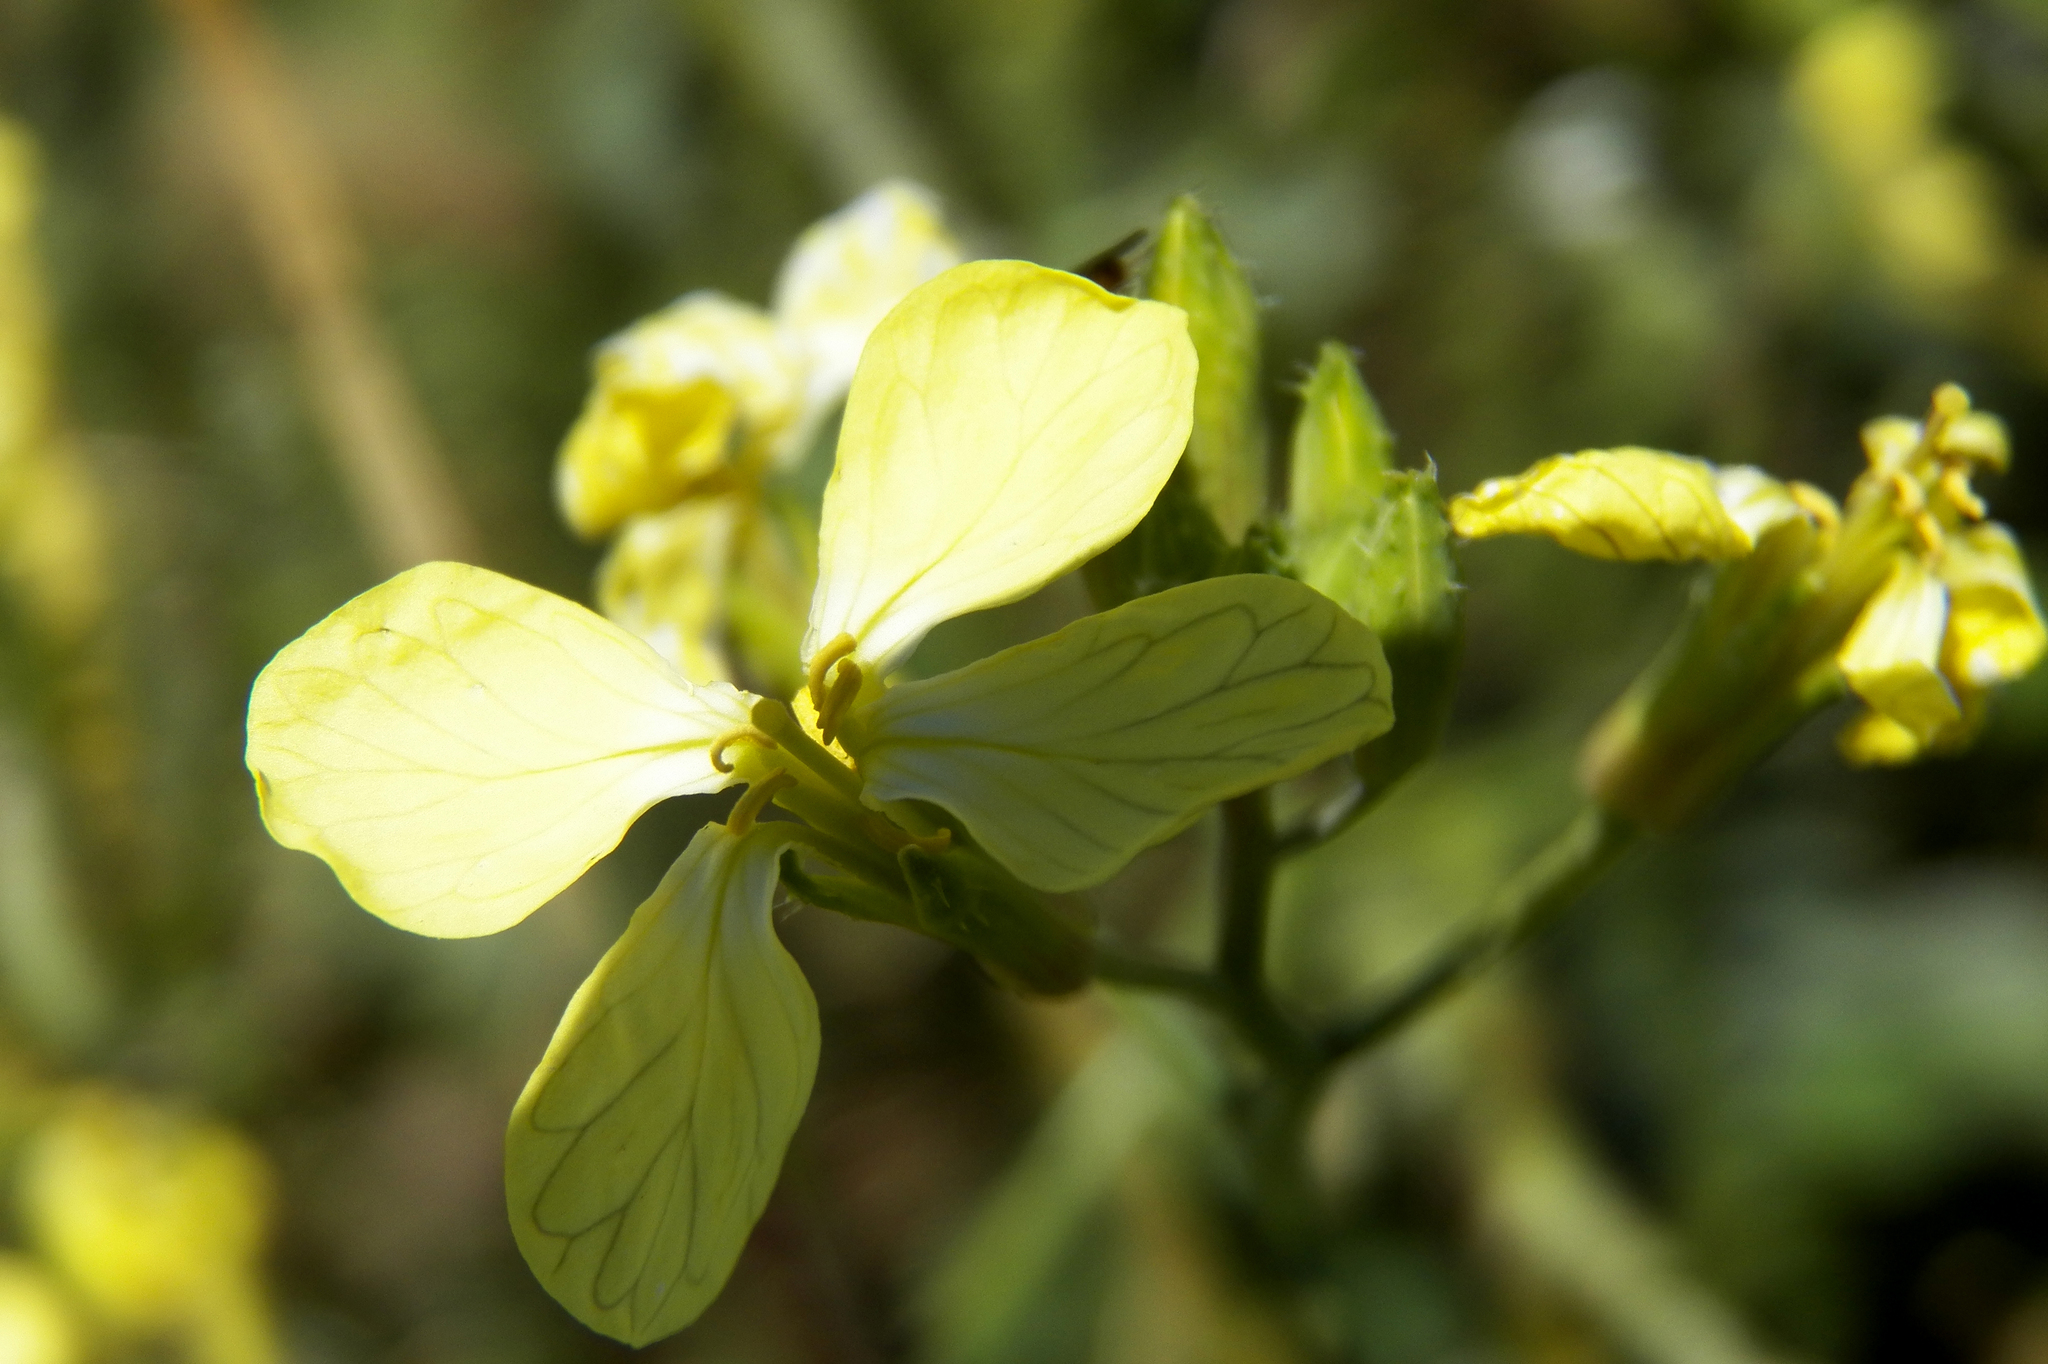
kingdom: Plantae
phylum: Tracheophyta
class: Magnoliopsida
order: Brassicales
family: Brassicaceae
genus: Raphanus
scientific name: Raphanus raphanistrum
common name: Wild radish
